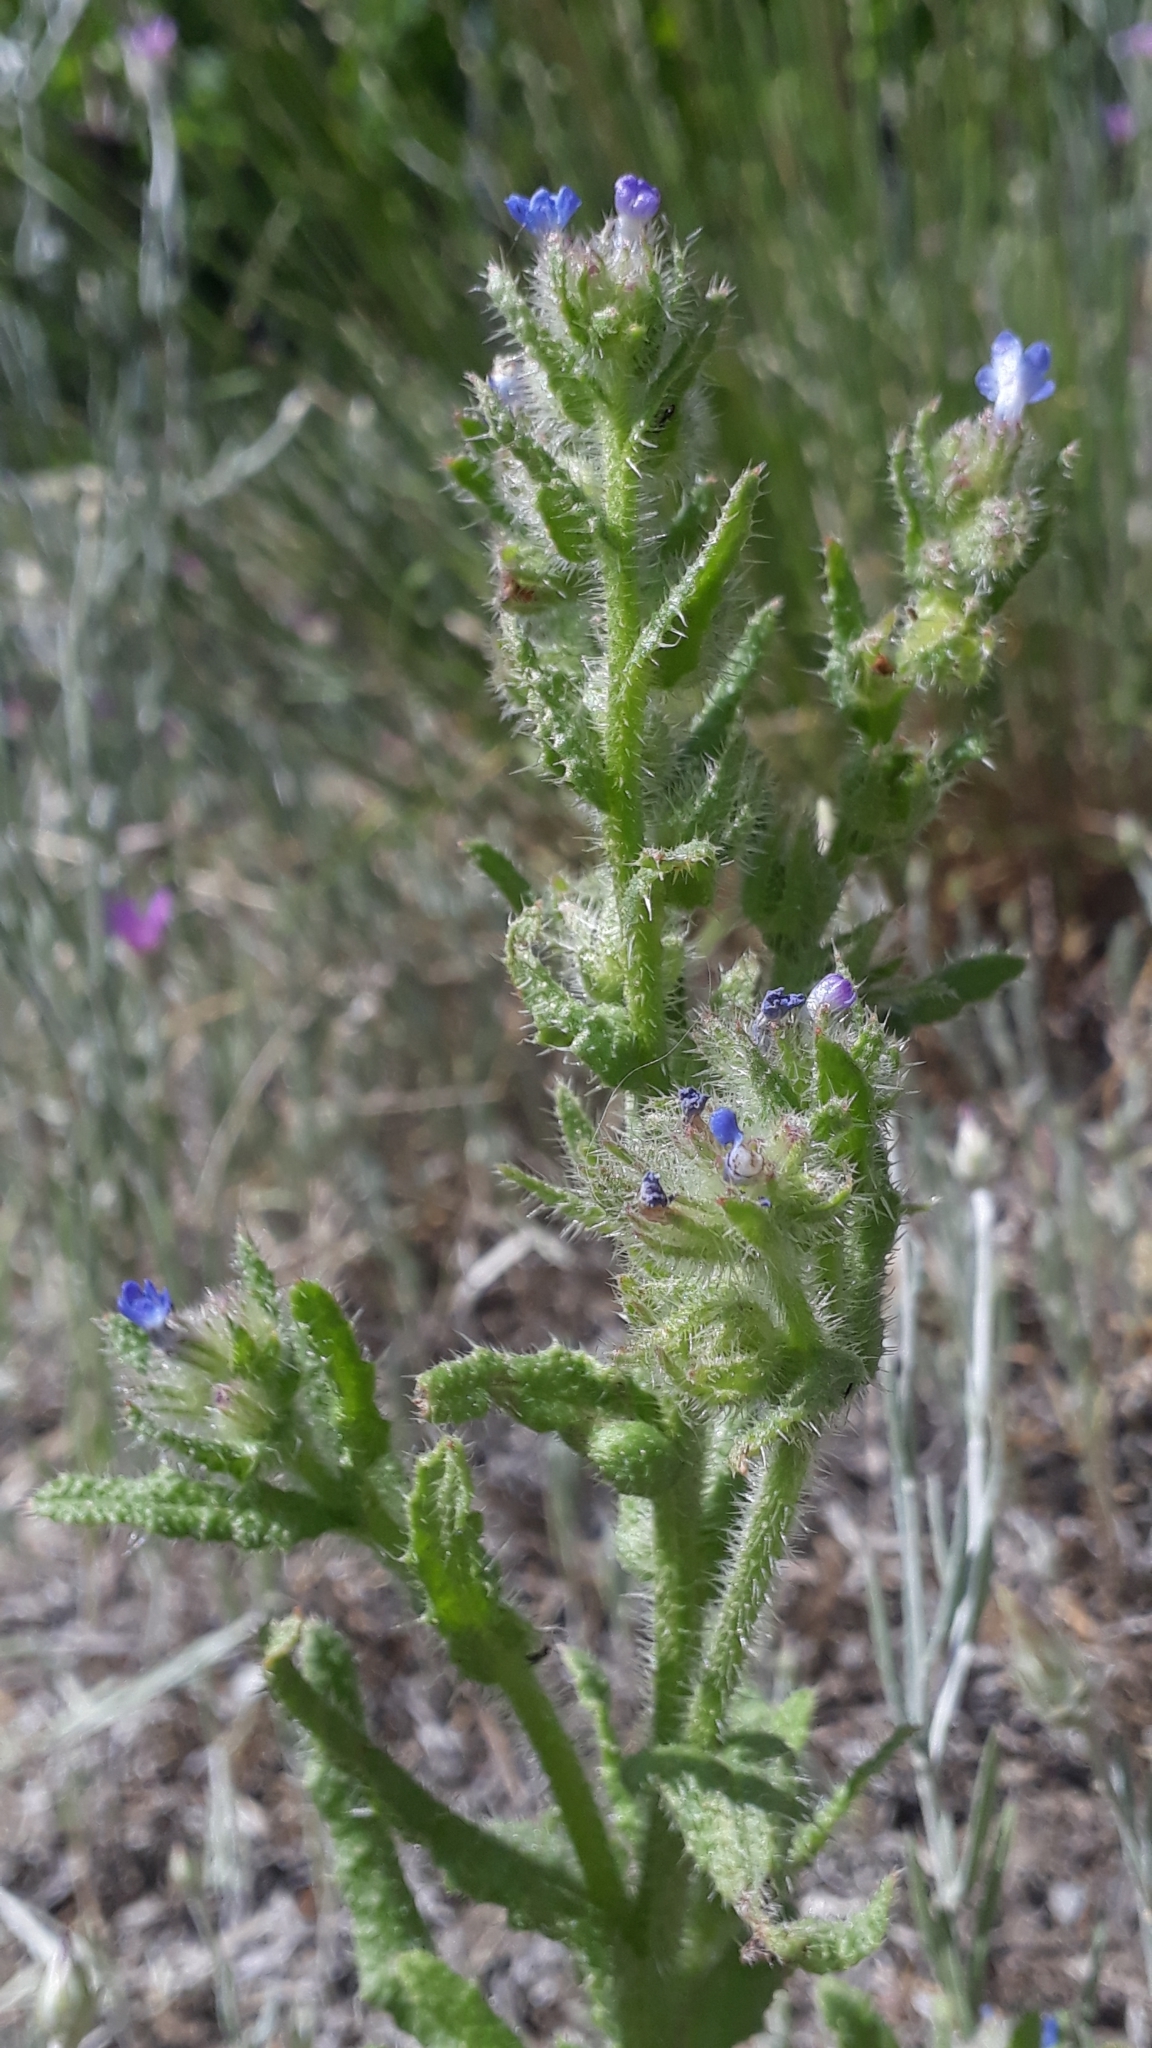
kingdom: Plantae
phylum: Tracheophyta
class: Magnoliopsida
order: Boraginales
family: Boraginaceae
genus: Lycopsis
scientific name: Lycopsis arvensis
